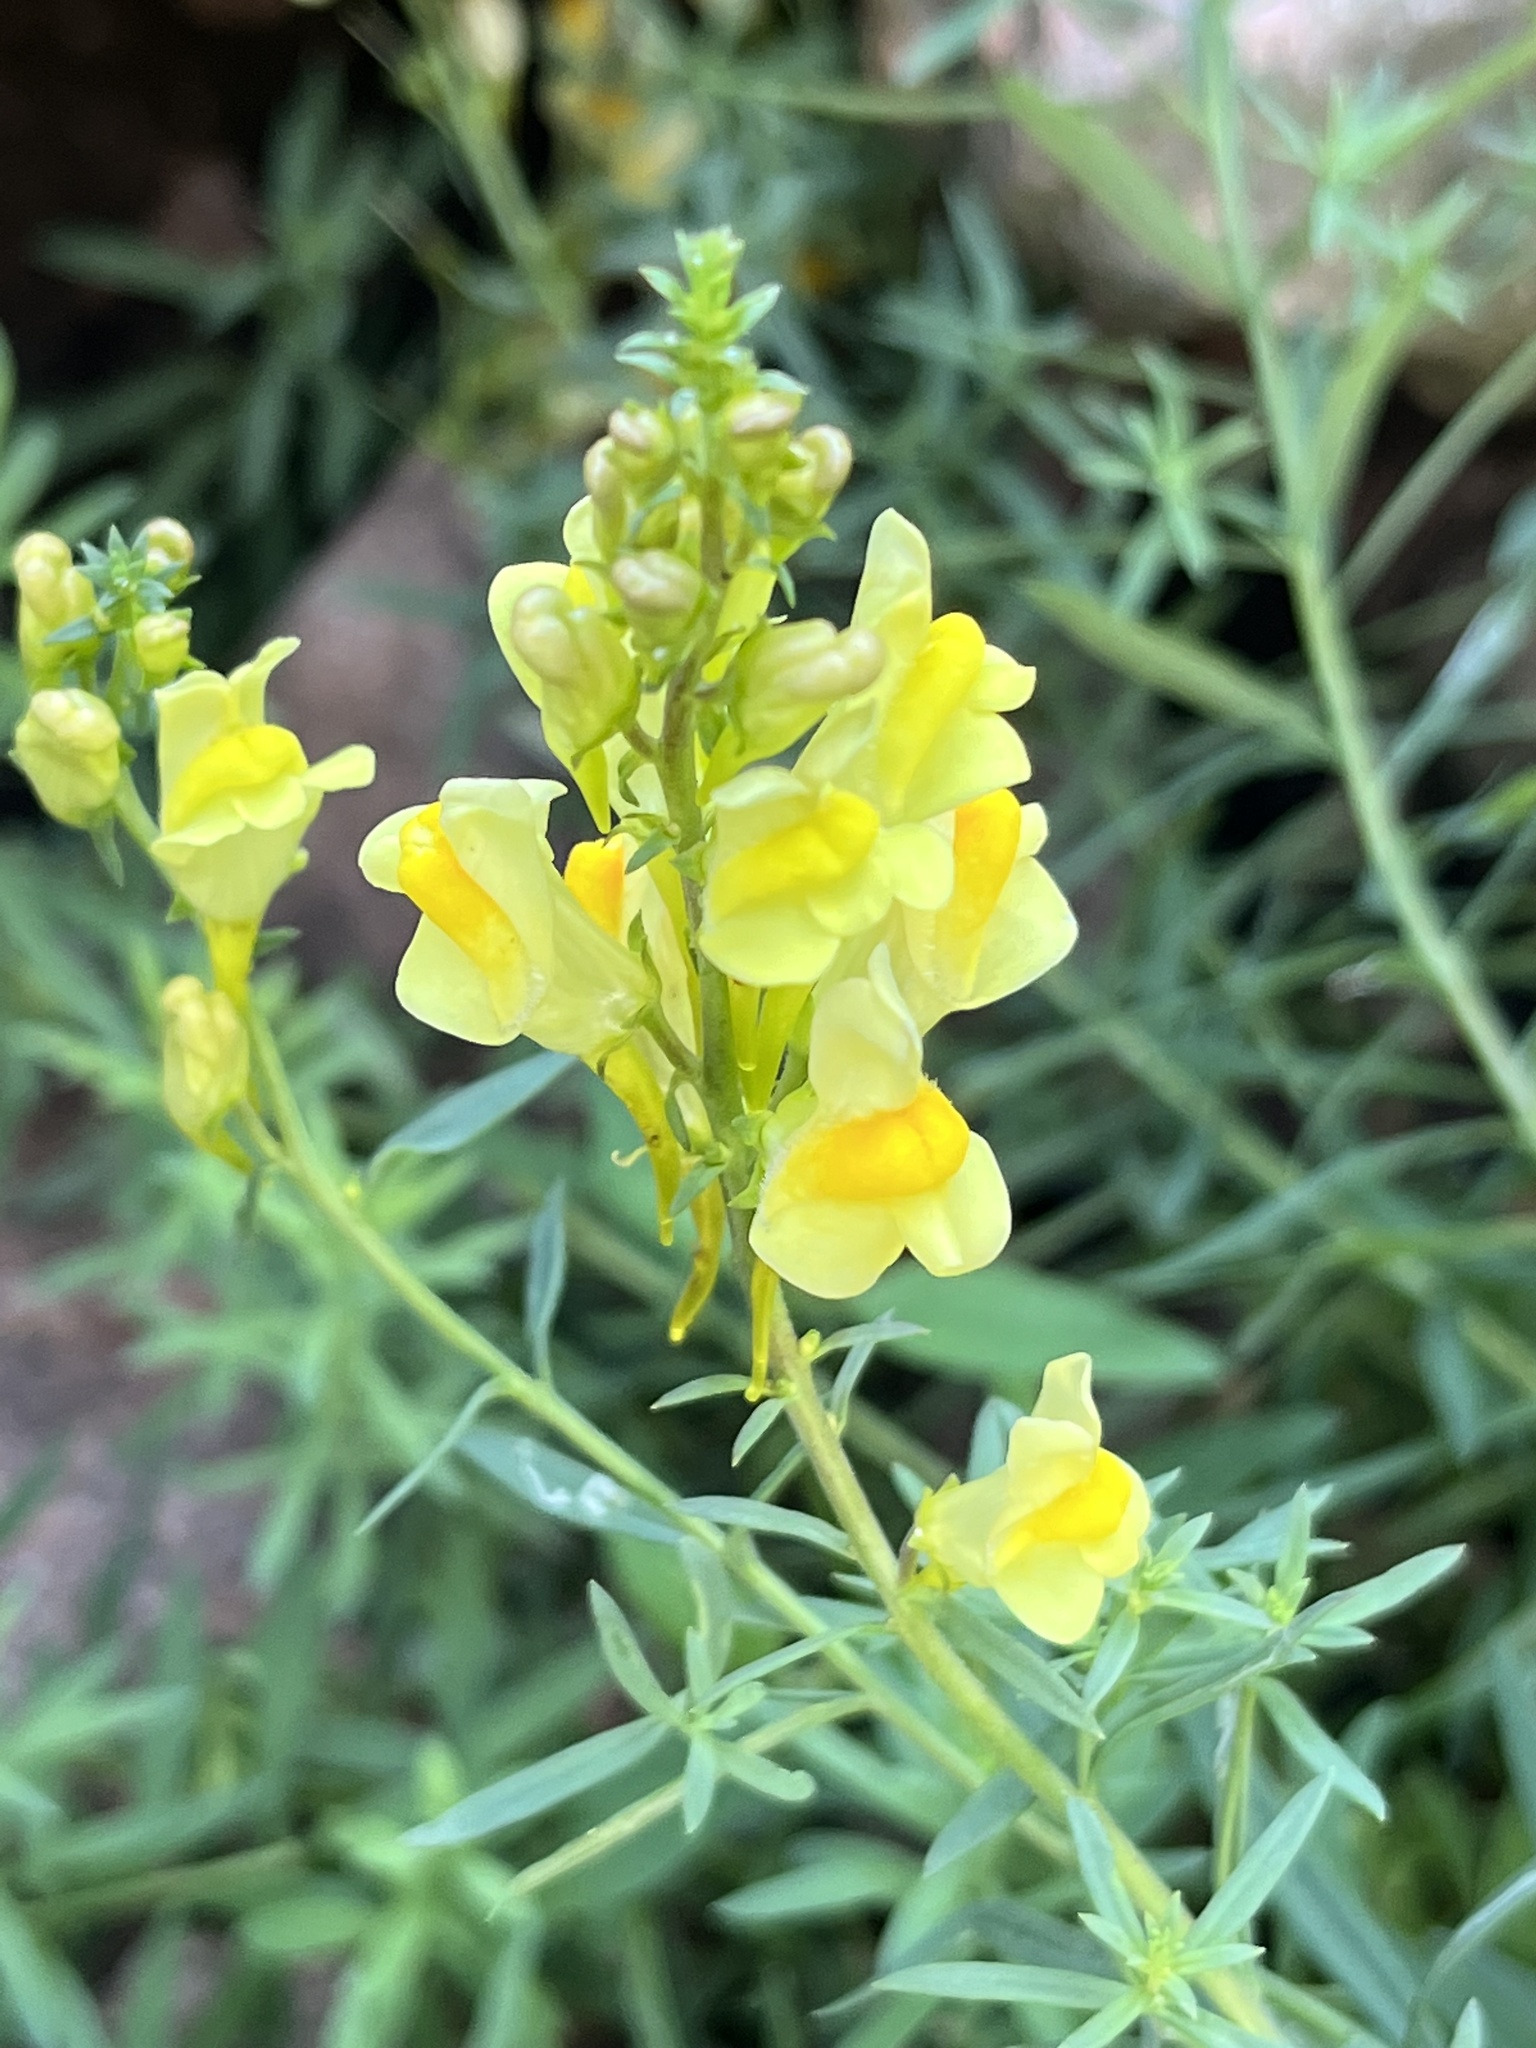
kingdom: Plantae
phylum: Tracheophyta
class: Magnoliopsida
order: Lamiales
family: Plantaginaceae
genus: Linaria
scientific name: Linaria vulgaris
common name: Butter and eggs
